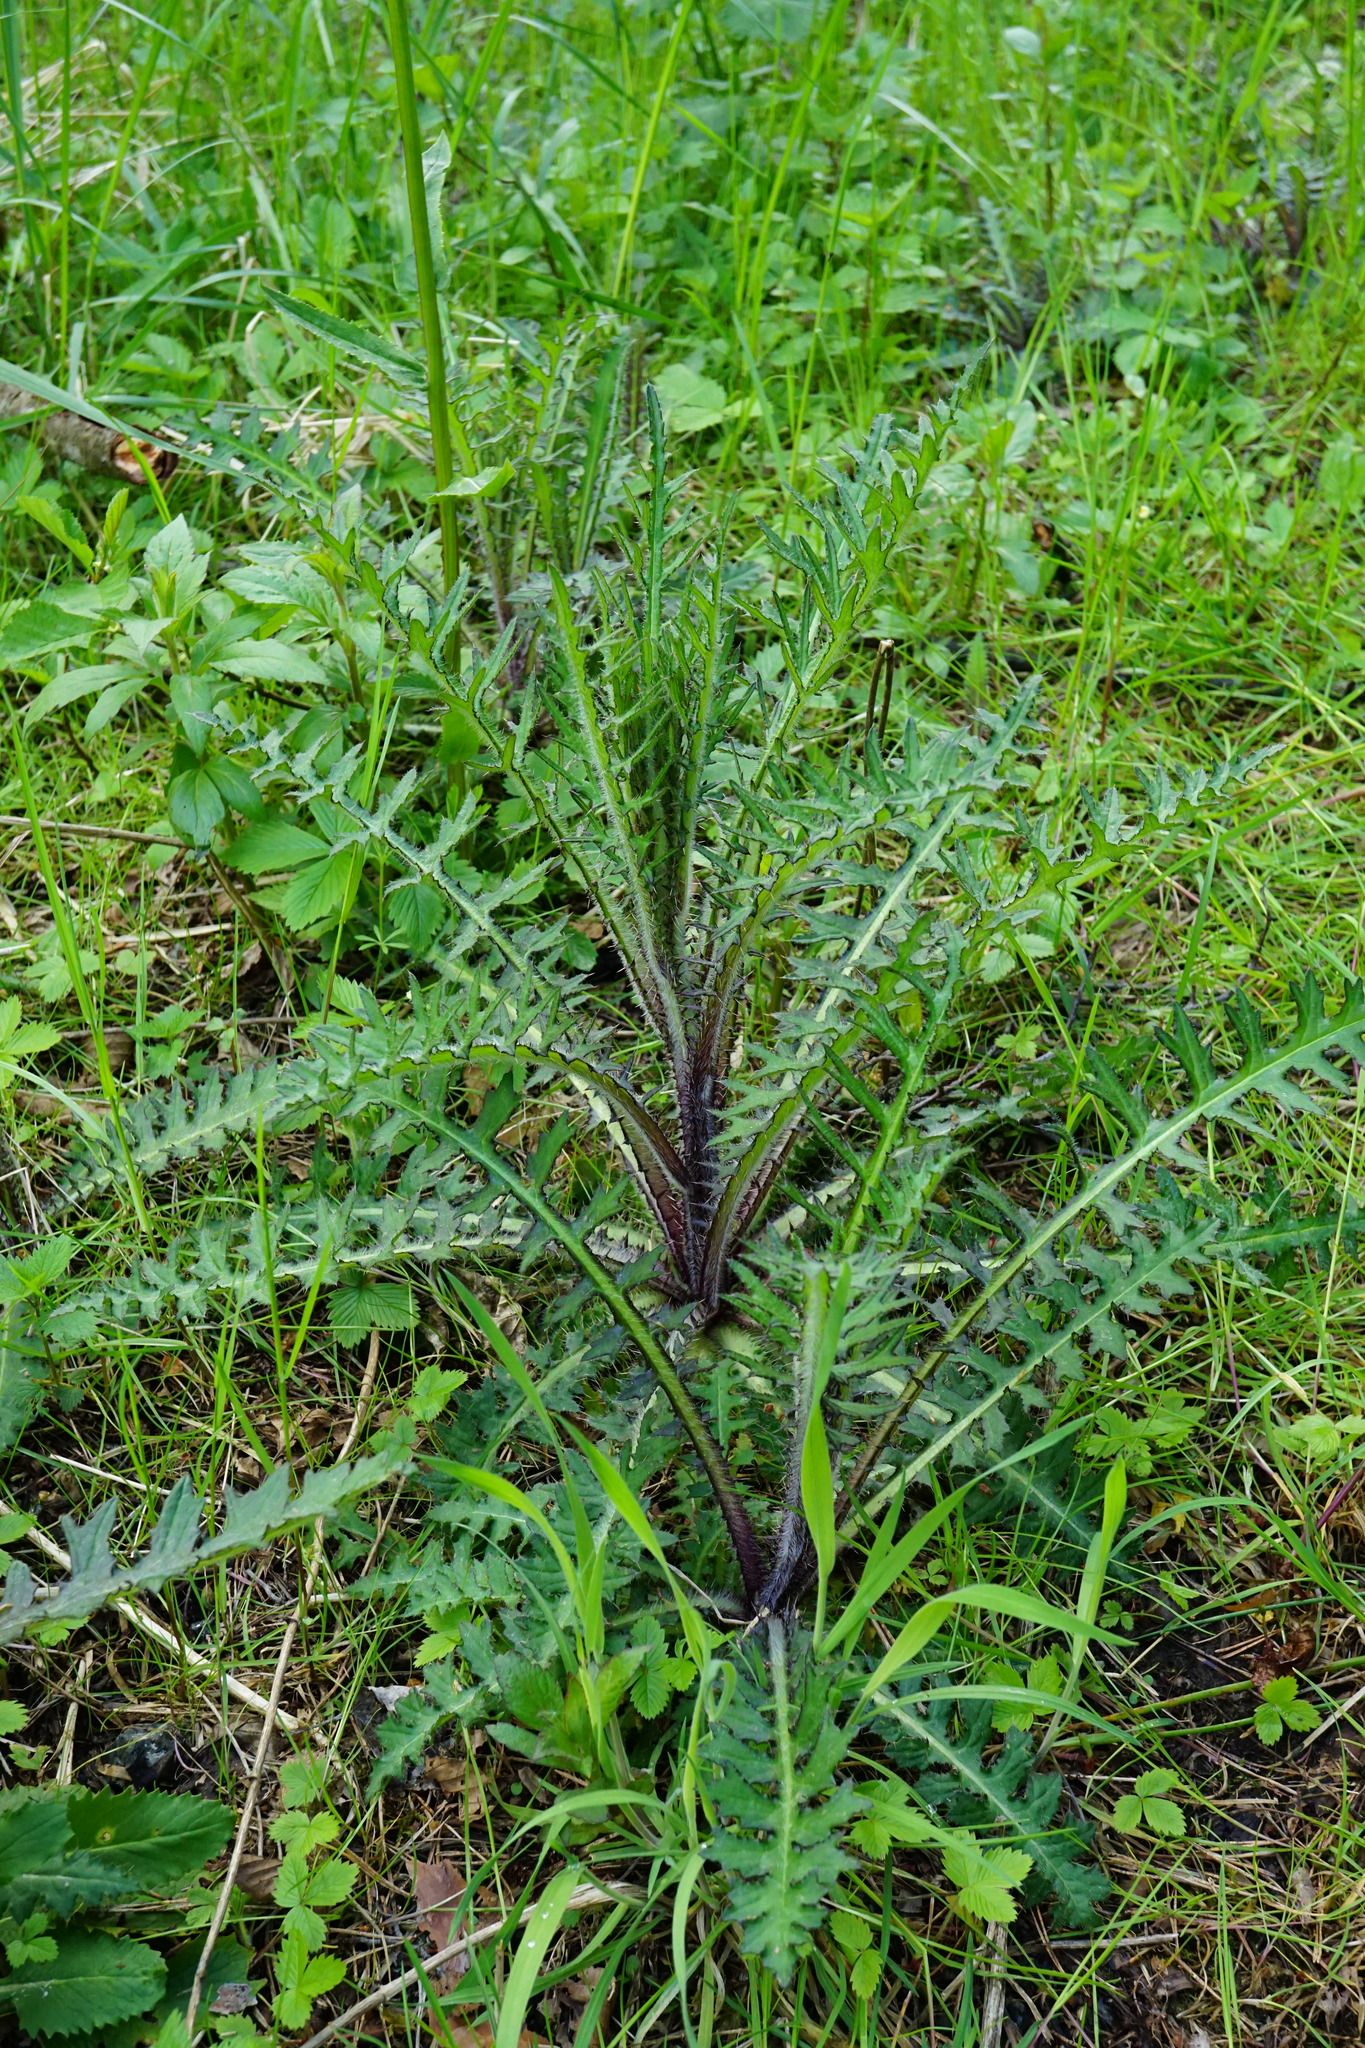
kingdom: Plantae
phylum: Tracheophyta
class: Magnoliopsida
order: Asterales
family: Asteraceae
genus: Cirsium
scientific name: Cirsium palustre
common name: Marsh thistle
